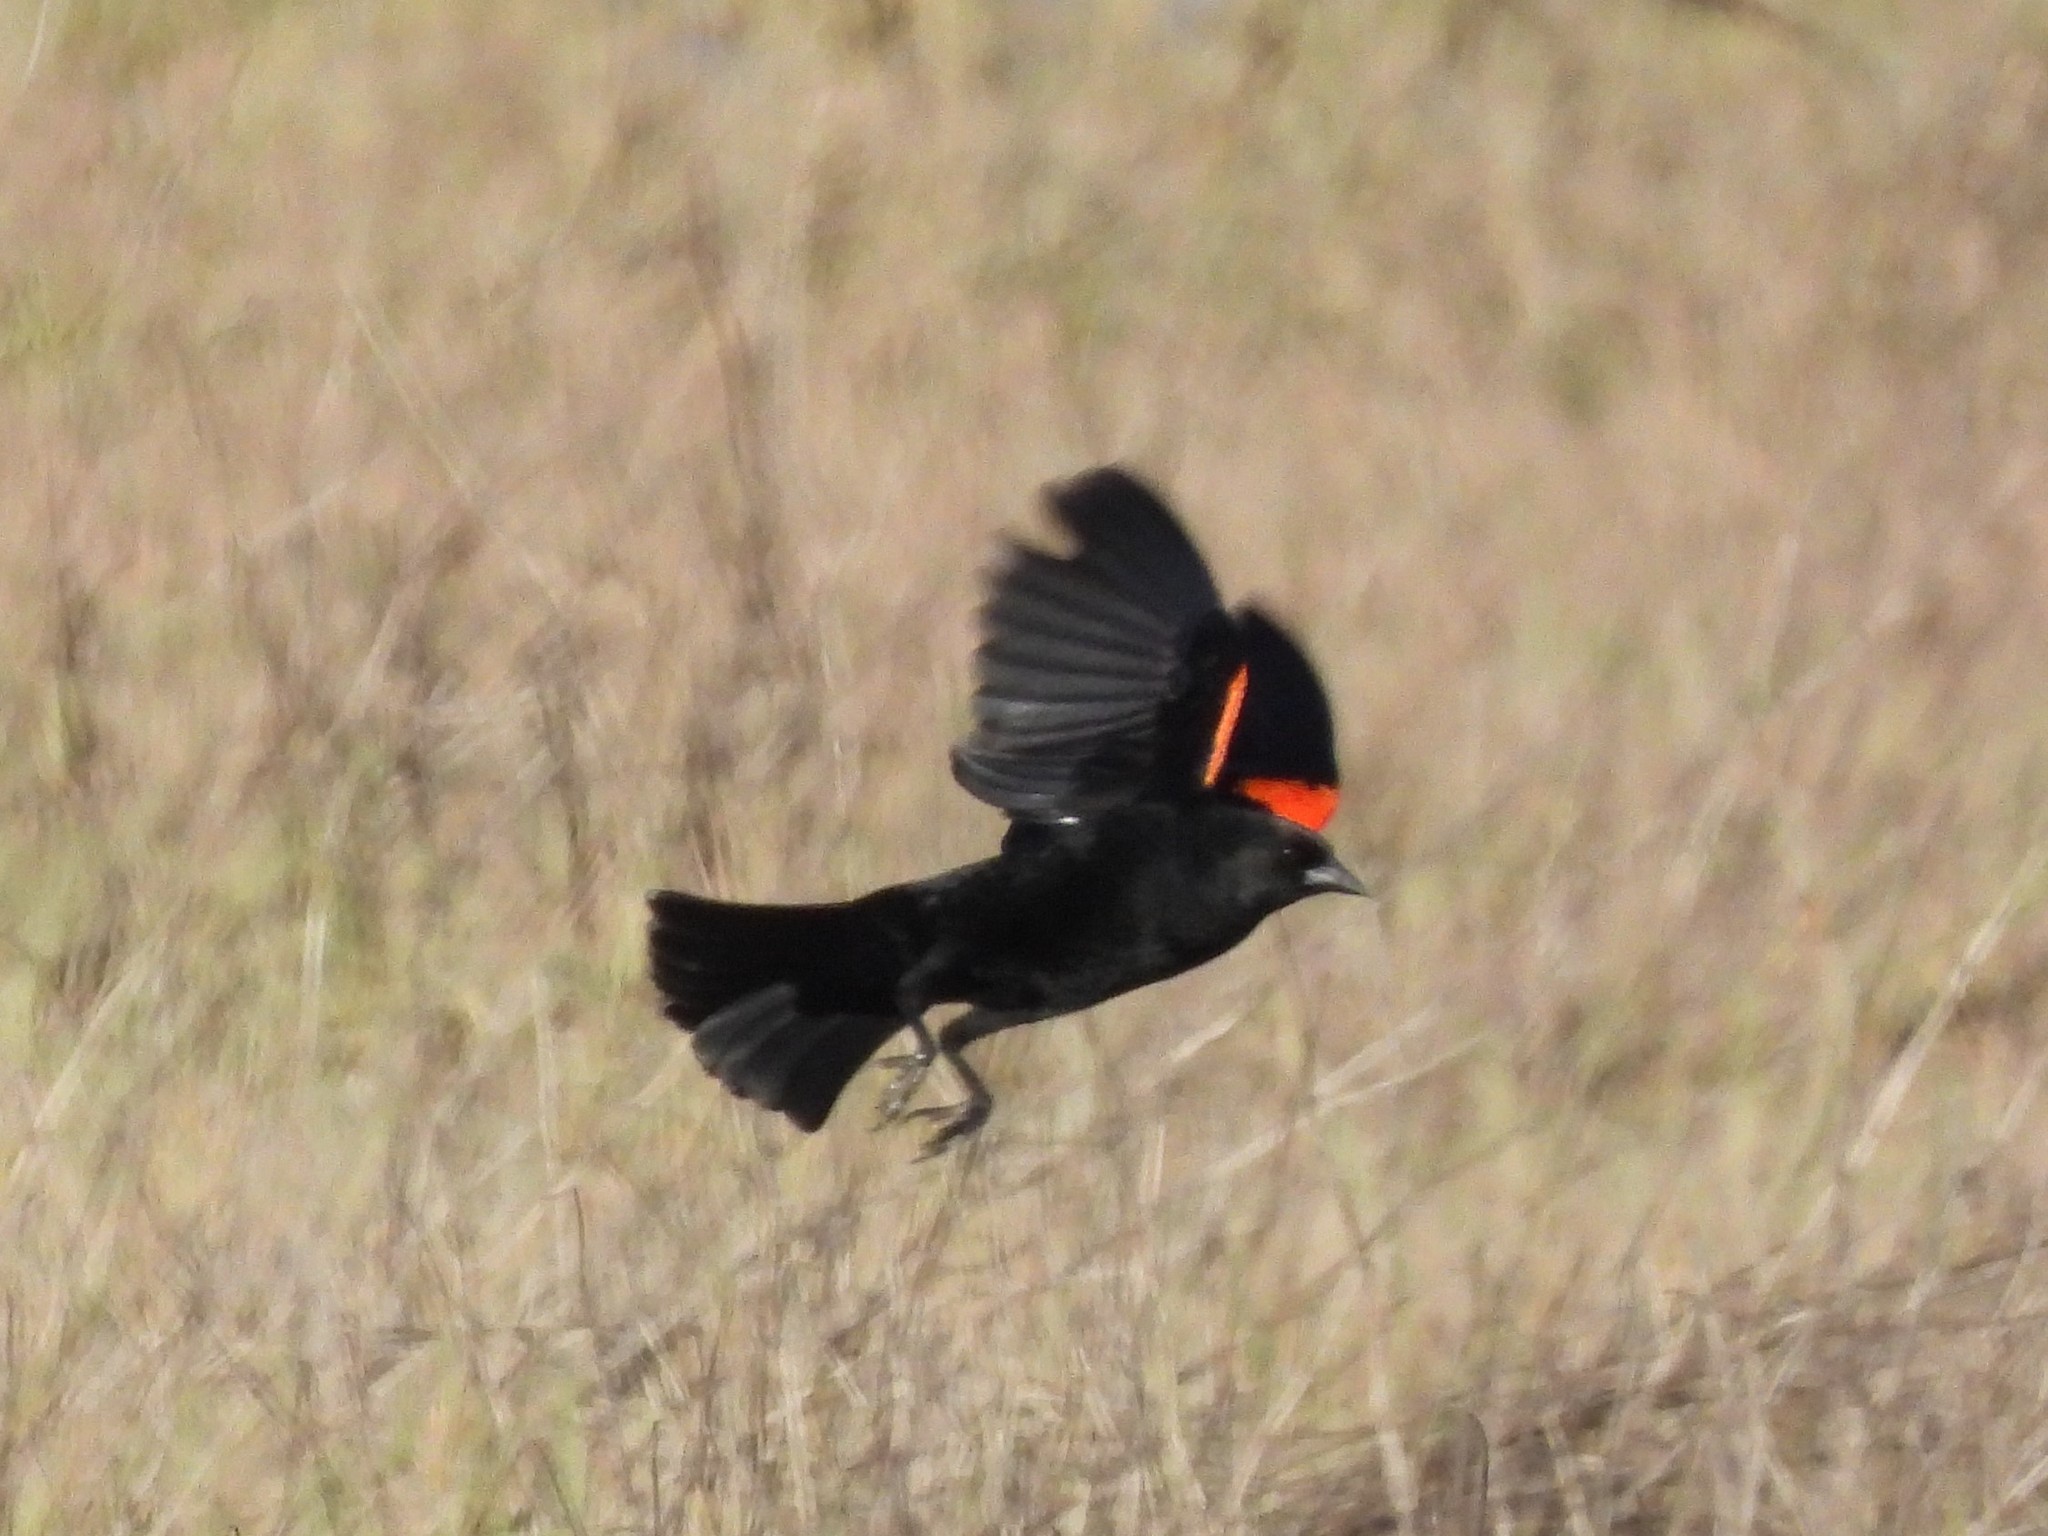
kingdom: Animalia
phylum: Chordata
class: Aves
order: Passeriformes
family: Icteridae
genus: Agelaius
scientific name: Agelaius phoeniceus
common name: Red-winged blackbird
